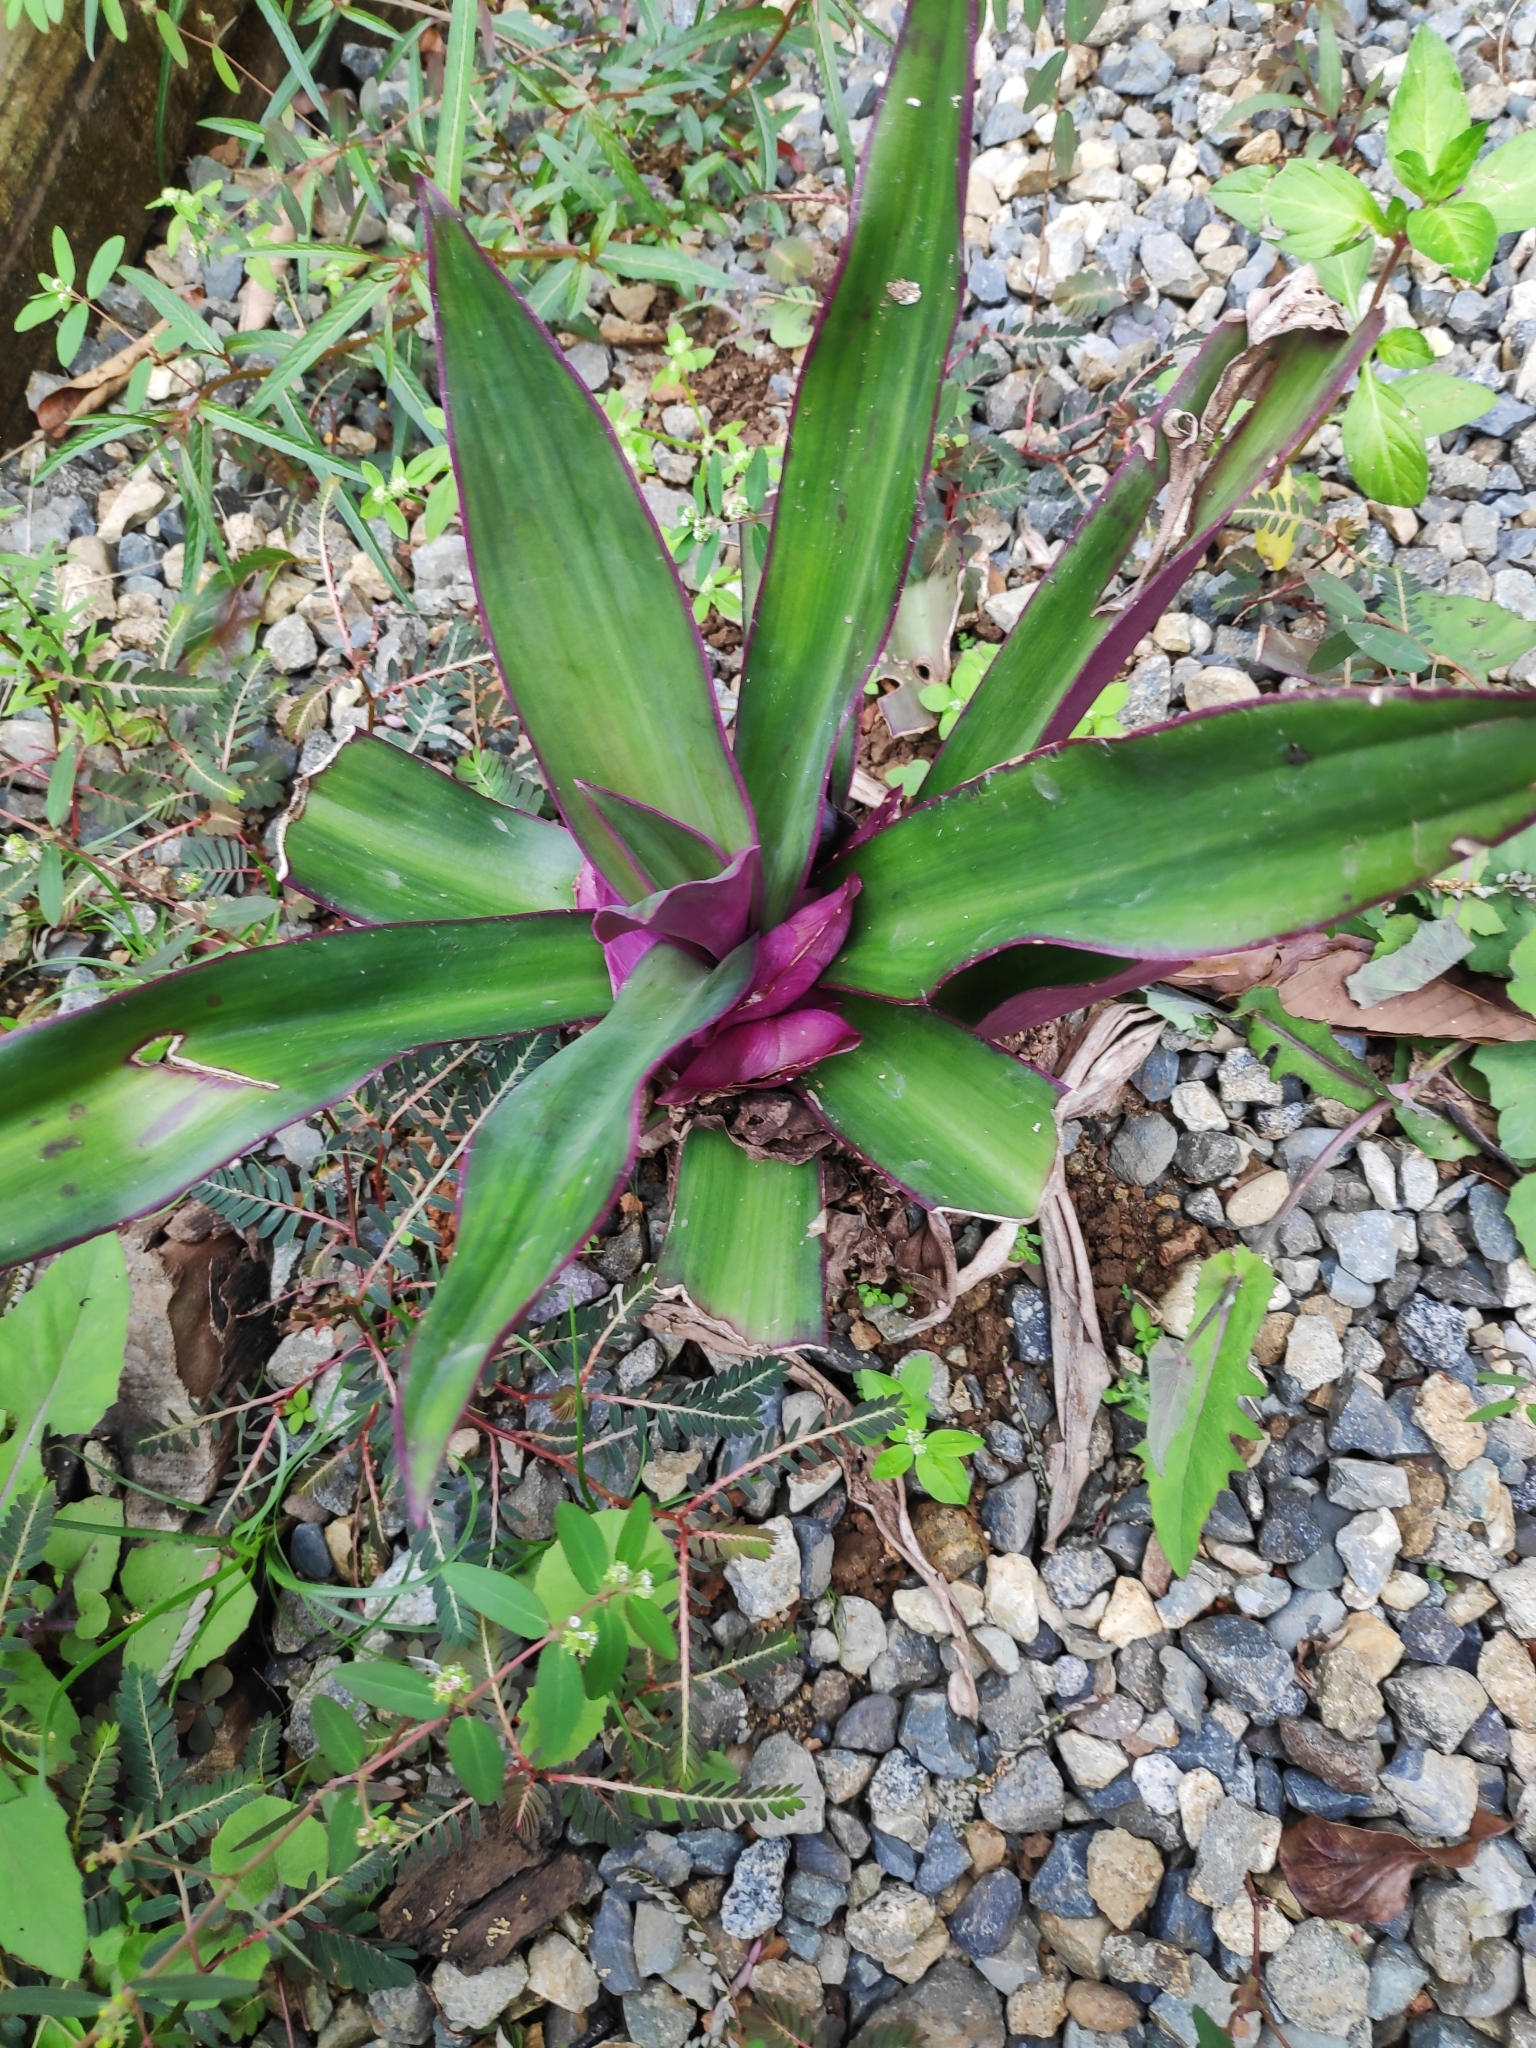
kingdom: Plantae
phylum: Tracheophyta
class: Liliopsida
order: Commelinales
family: Commelinaceae
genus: Tradescantia
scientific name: Tradescantia spathacea
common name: Boatlily
